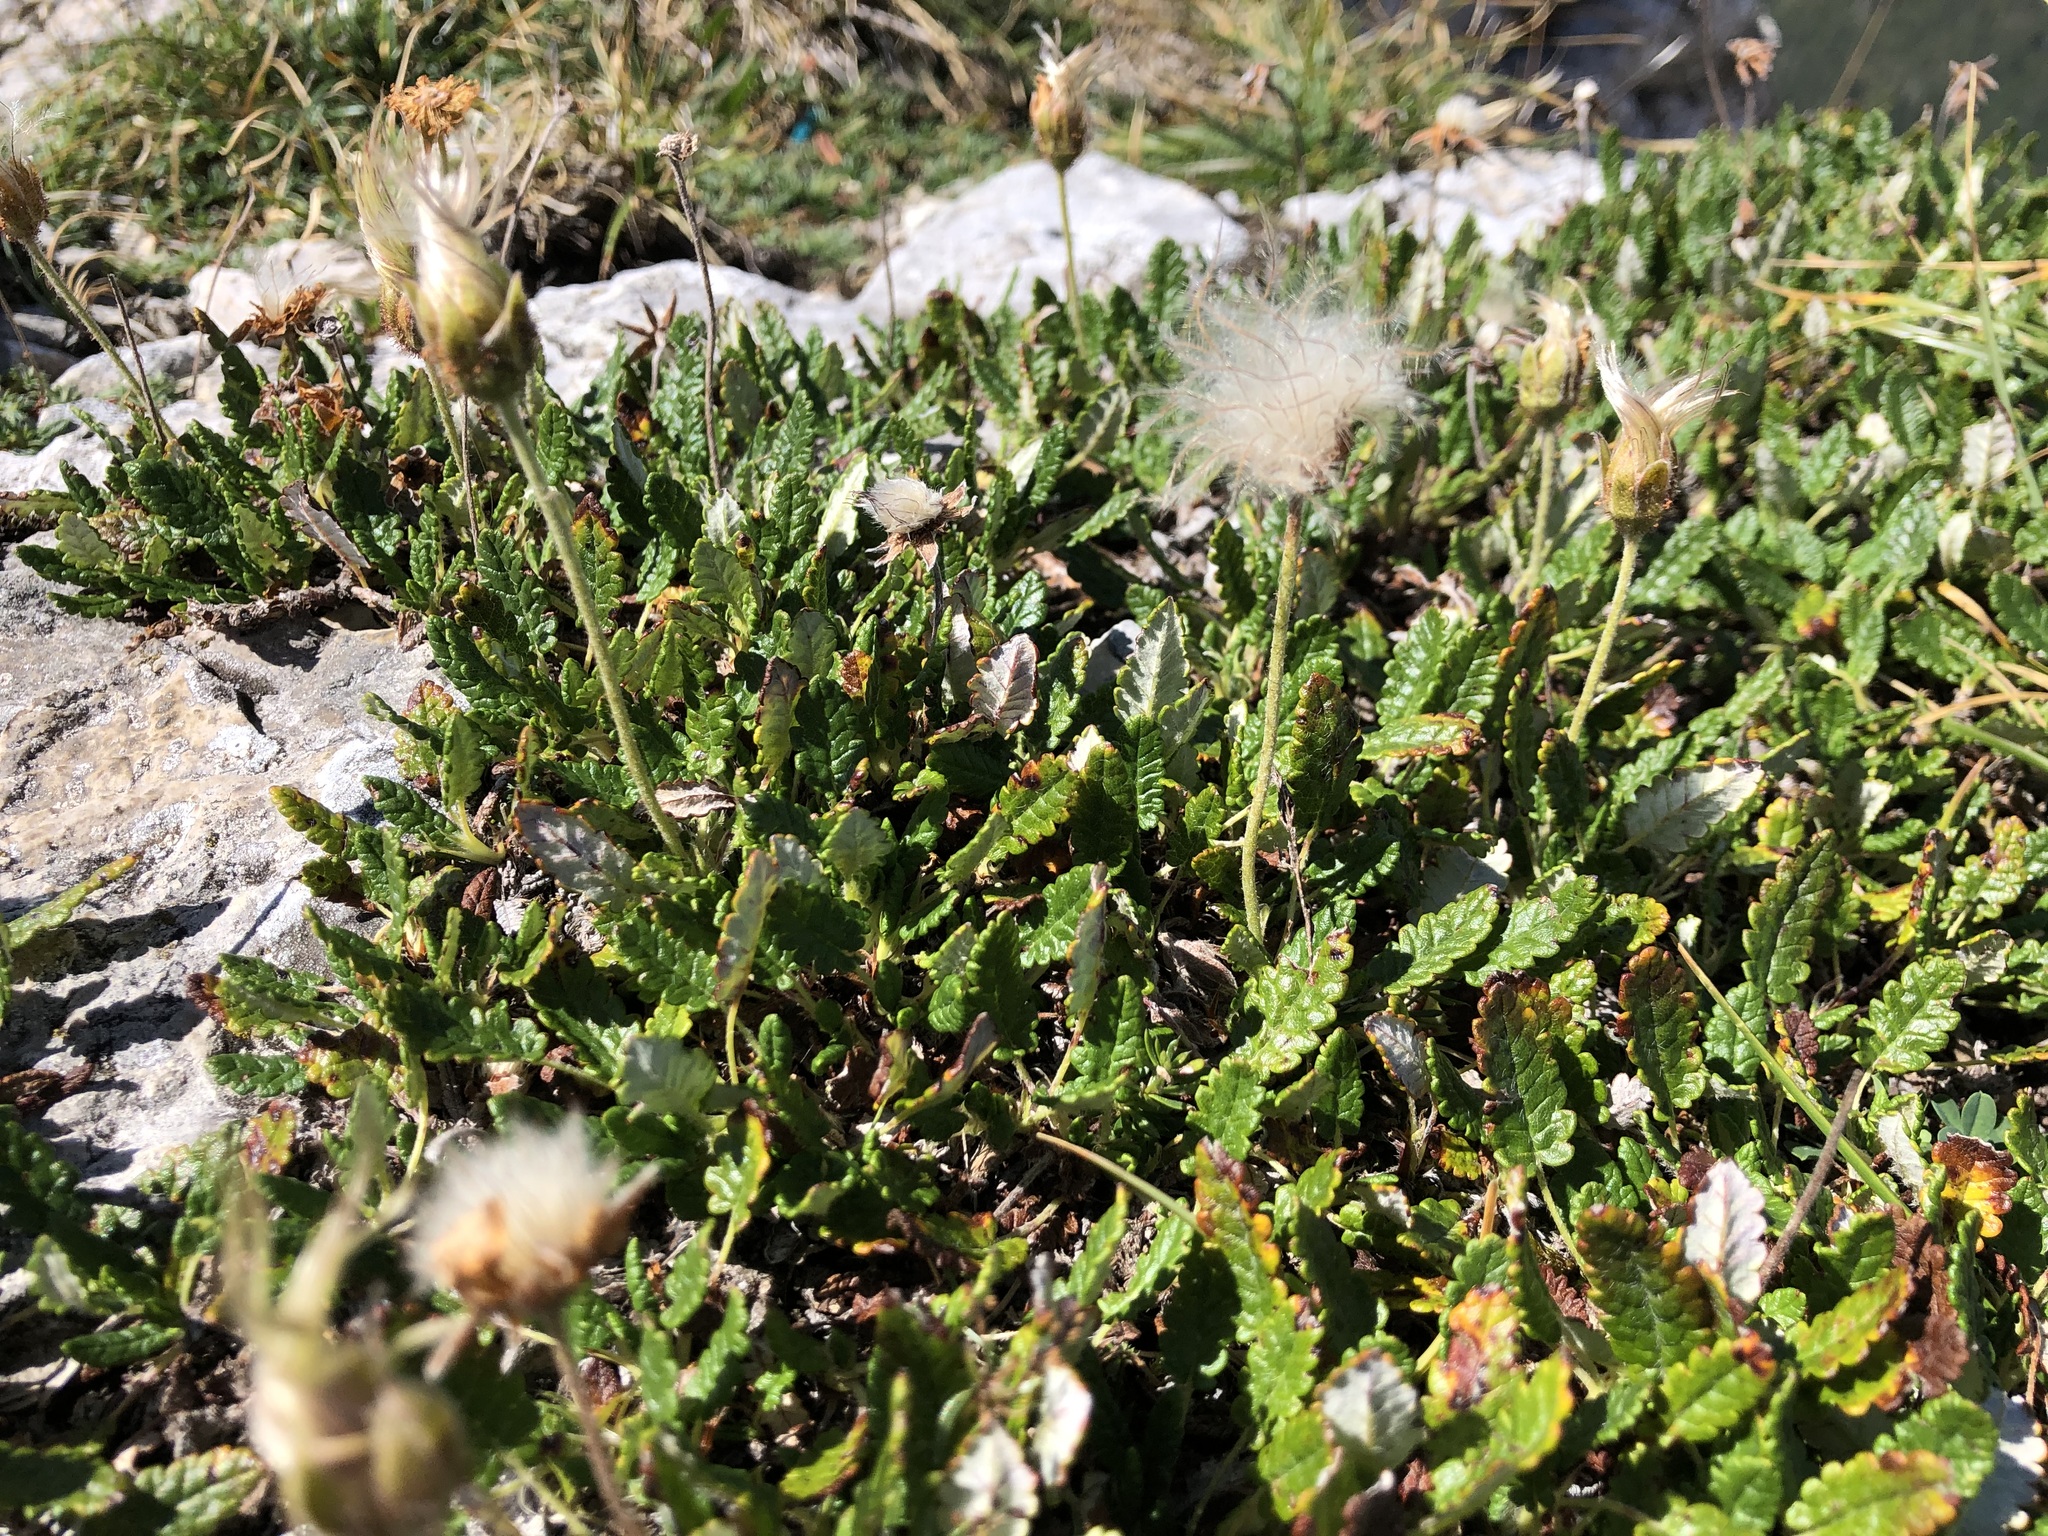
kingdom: Plantae
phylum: Tracheophyta
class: Magnoliopsida
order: Rosales
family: Rosaceae
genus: Dryas
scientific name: Dryas octopetala
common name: Eight-petal mountain-avens
